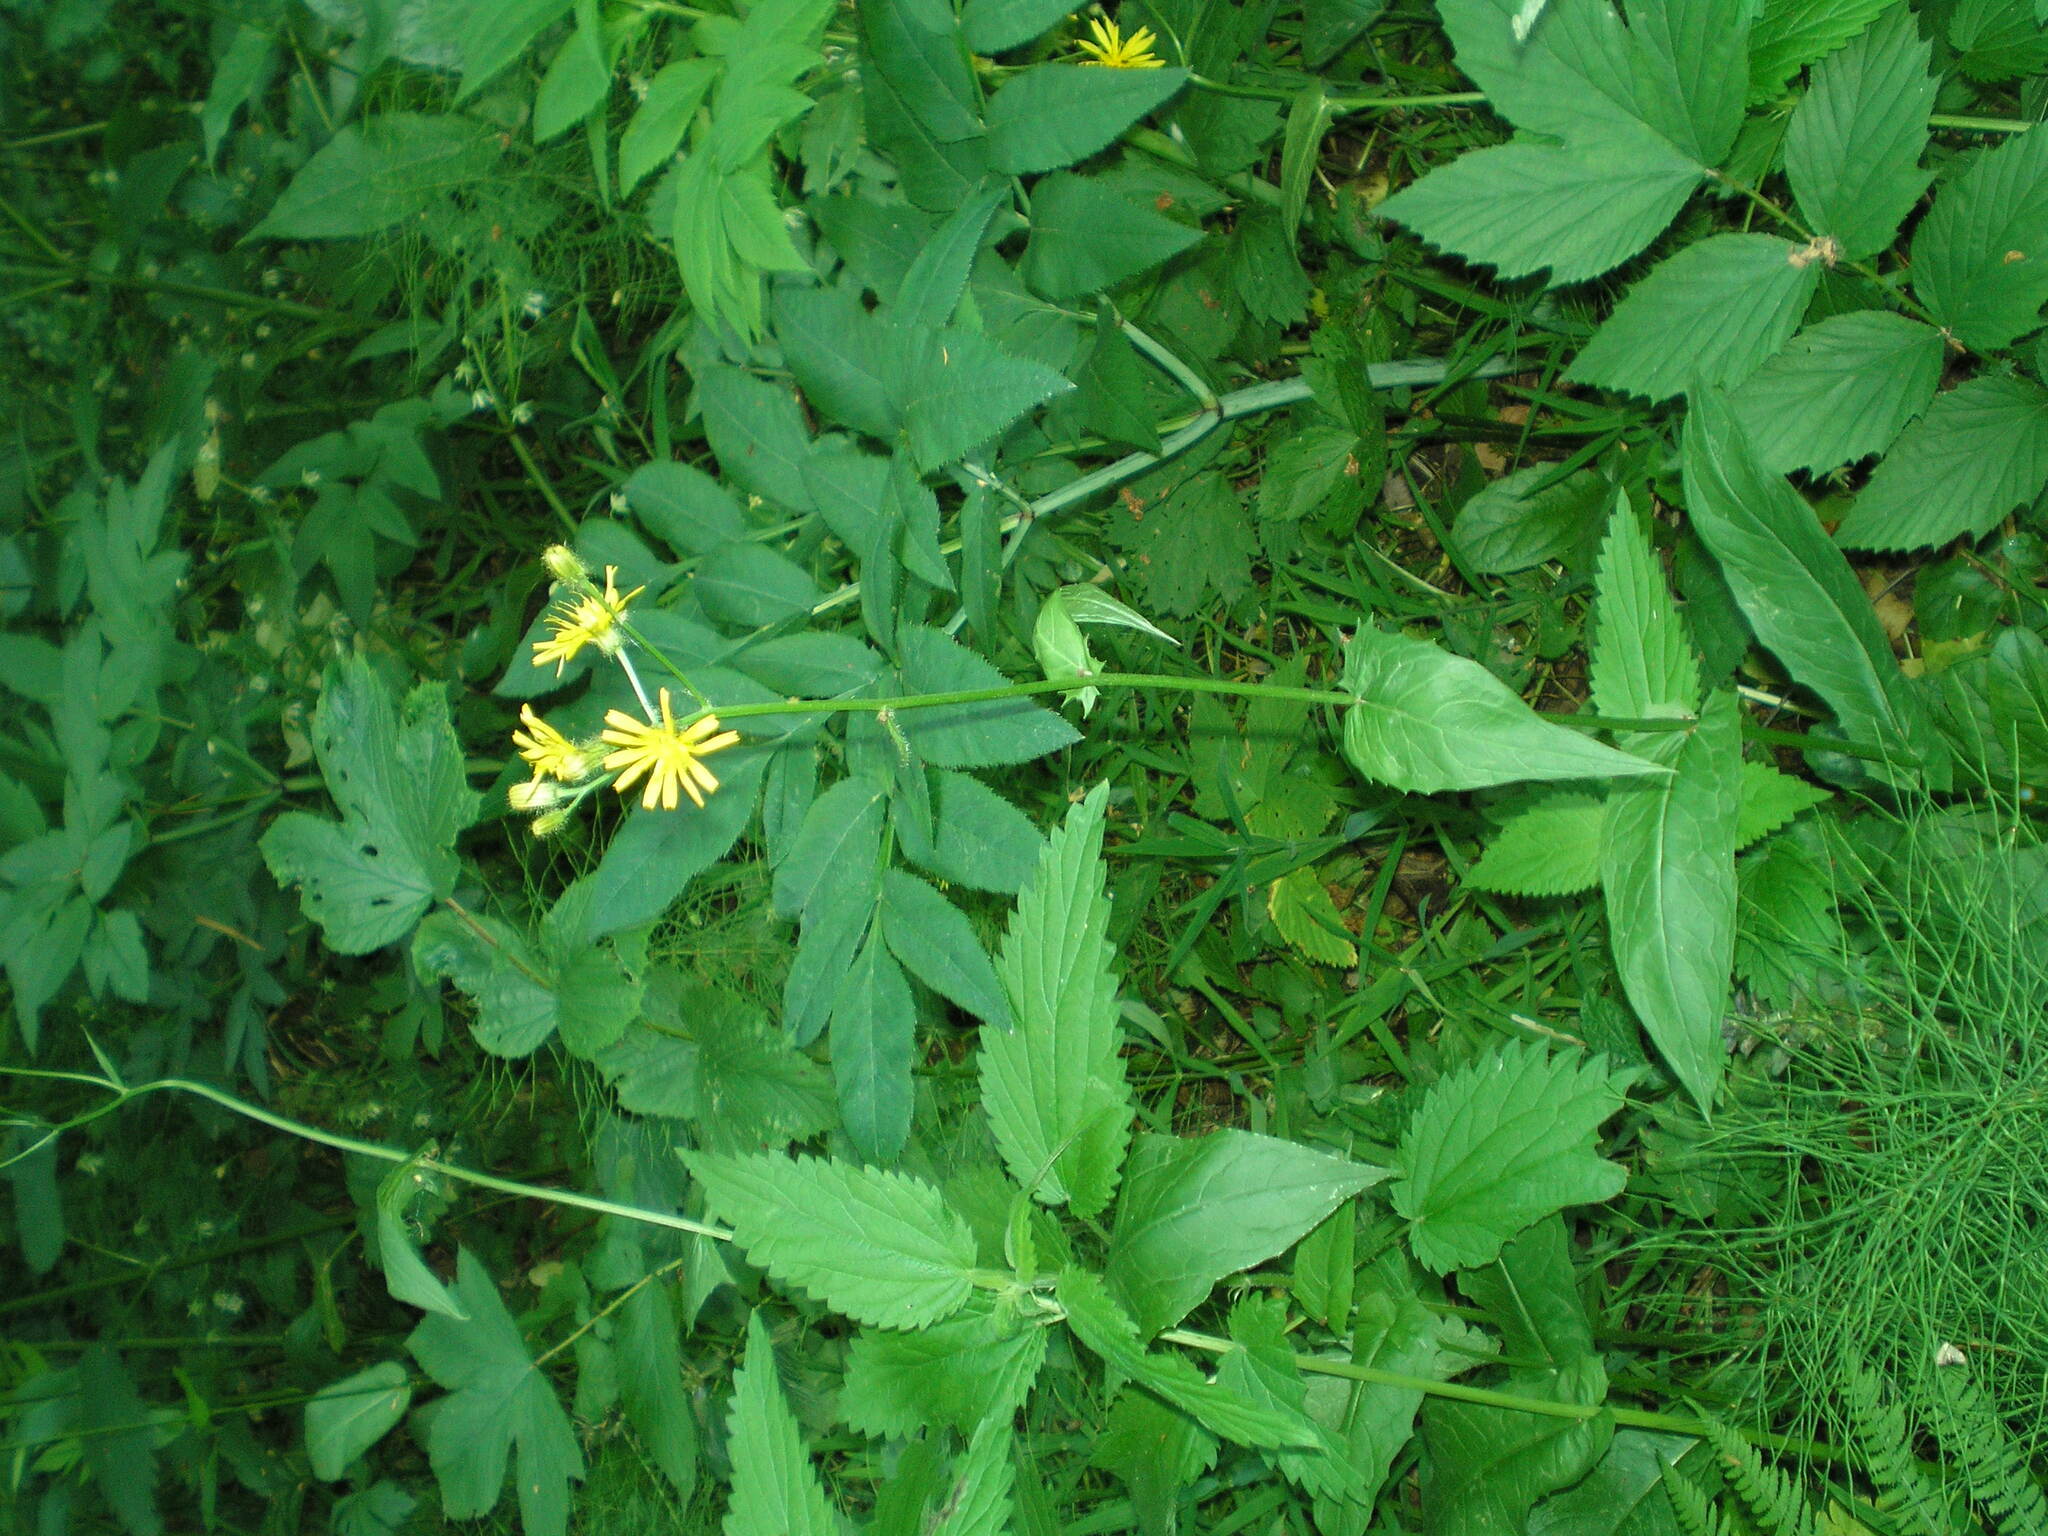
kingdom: Plantae
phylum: Tracheophyta
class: Magnoliopsida
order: Asterales
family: Asteraceae
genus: Crepis
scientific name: Crepis paludosa
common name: Marsh hawk's-beard
